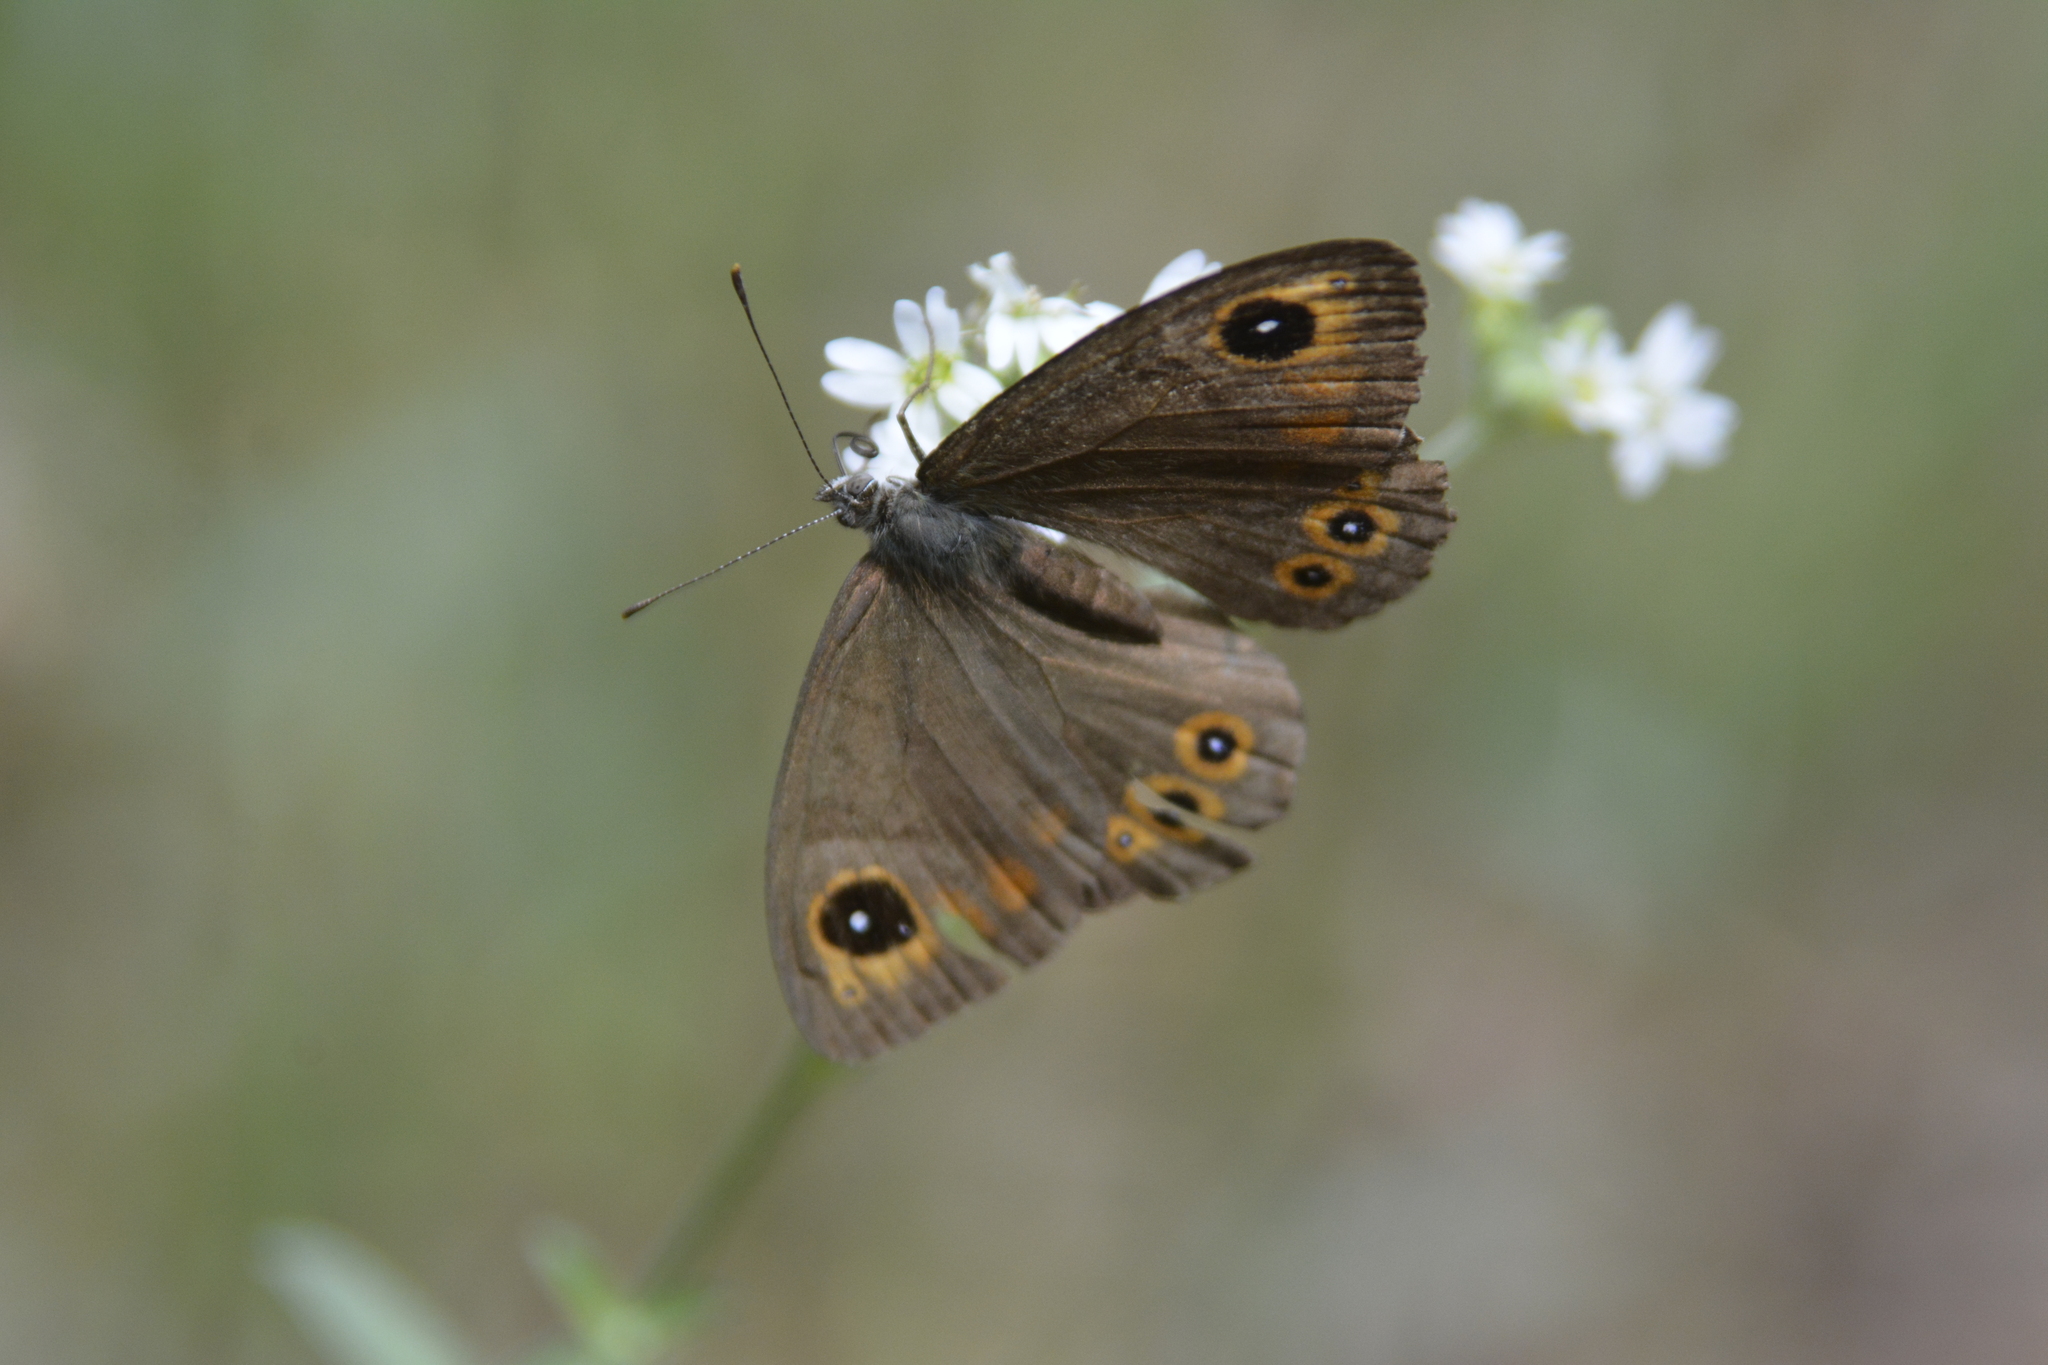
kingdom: Animalia
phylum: Arthropoda
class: Insecta
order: Lepidoptera
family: Nymphalidae
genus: Pararge
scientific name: Pararge Lasiommata maera
